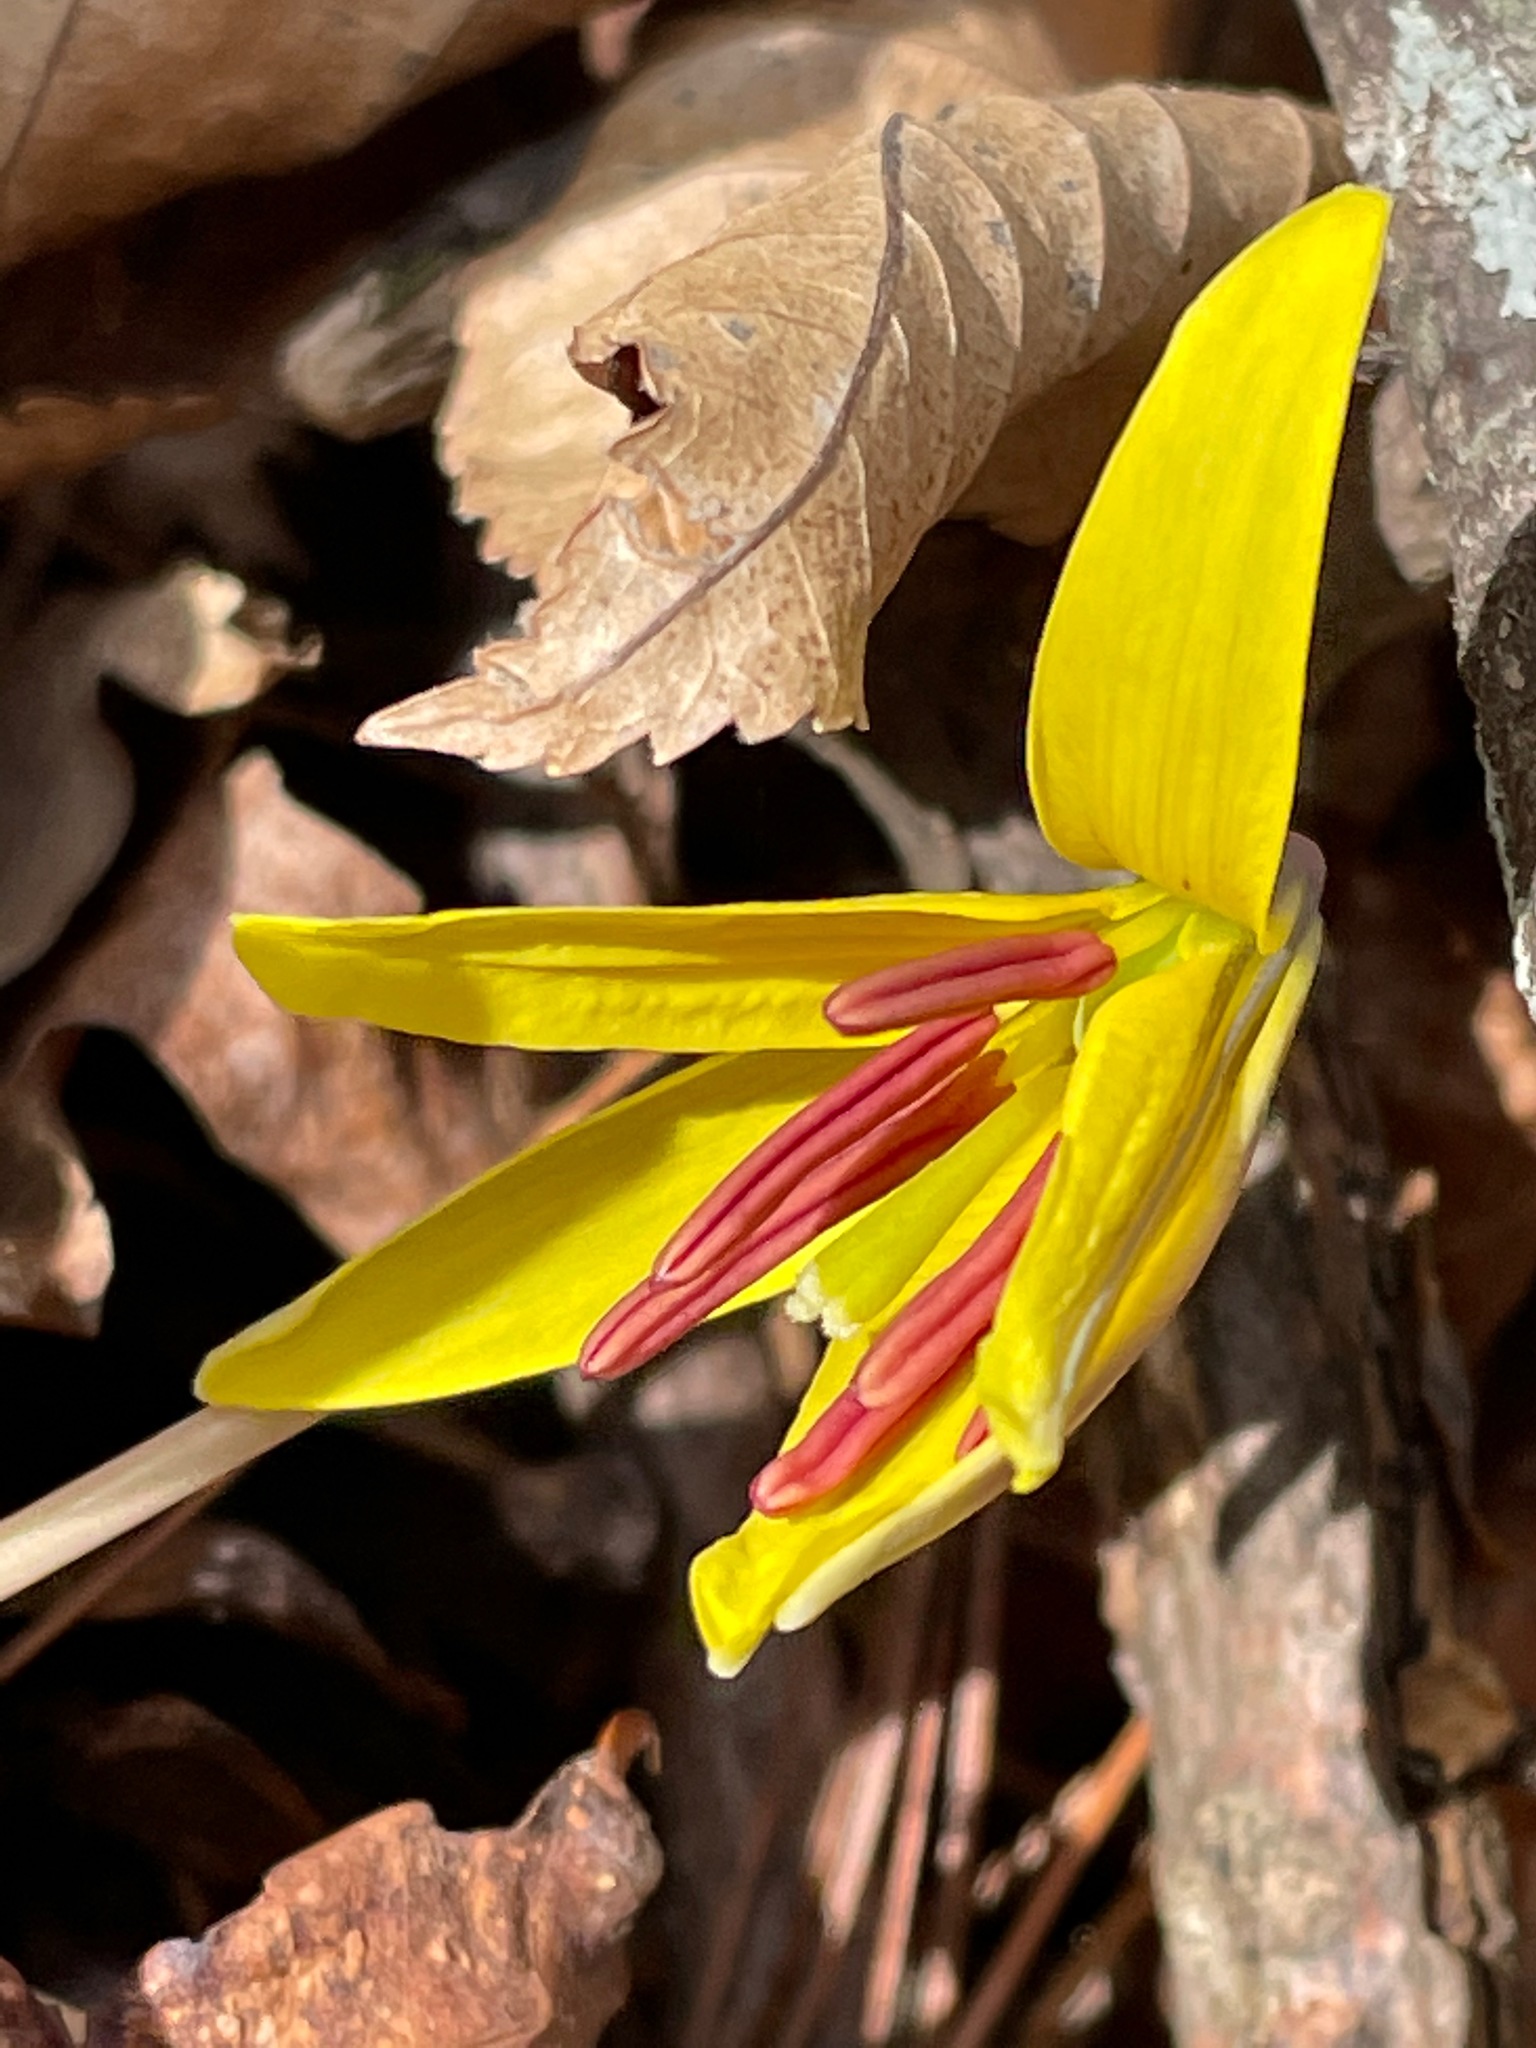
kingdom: Plantae
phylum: Tracheophyta
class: Liliopsida
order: Liliales
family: Liliaceae
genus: Erythronium
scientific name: Erythronium americanum
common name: Yellow adder's-tongue
